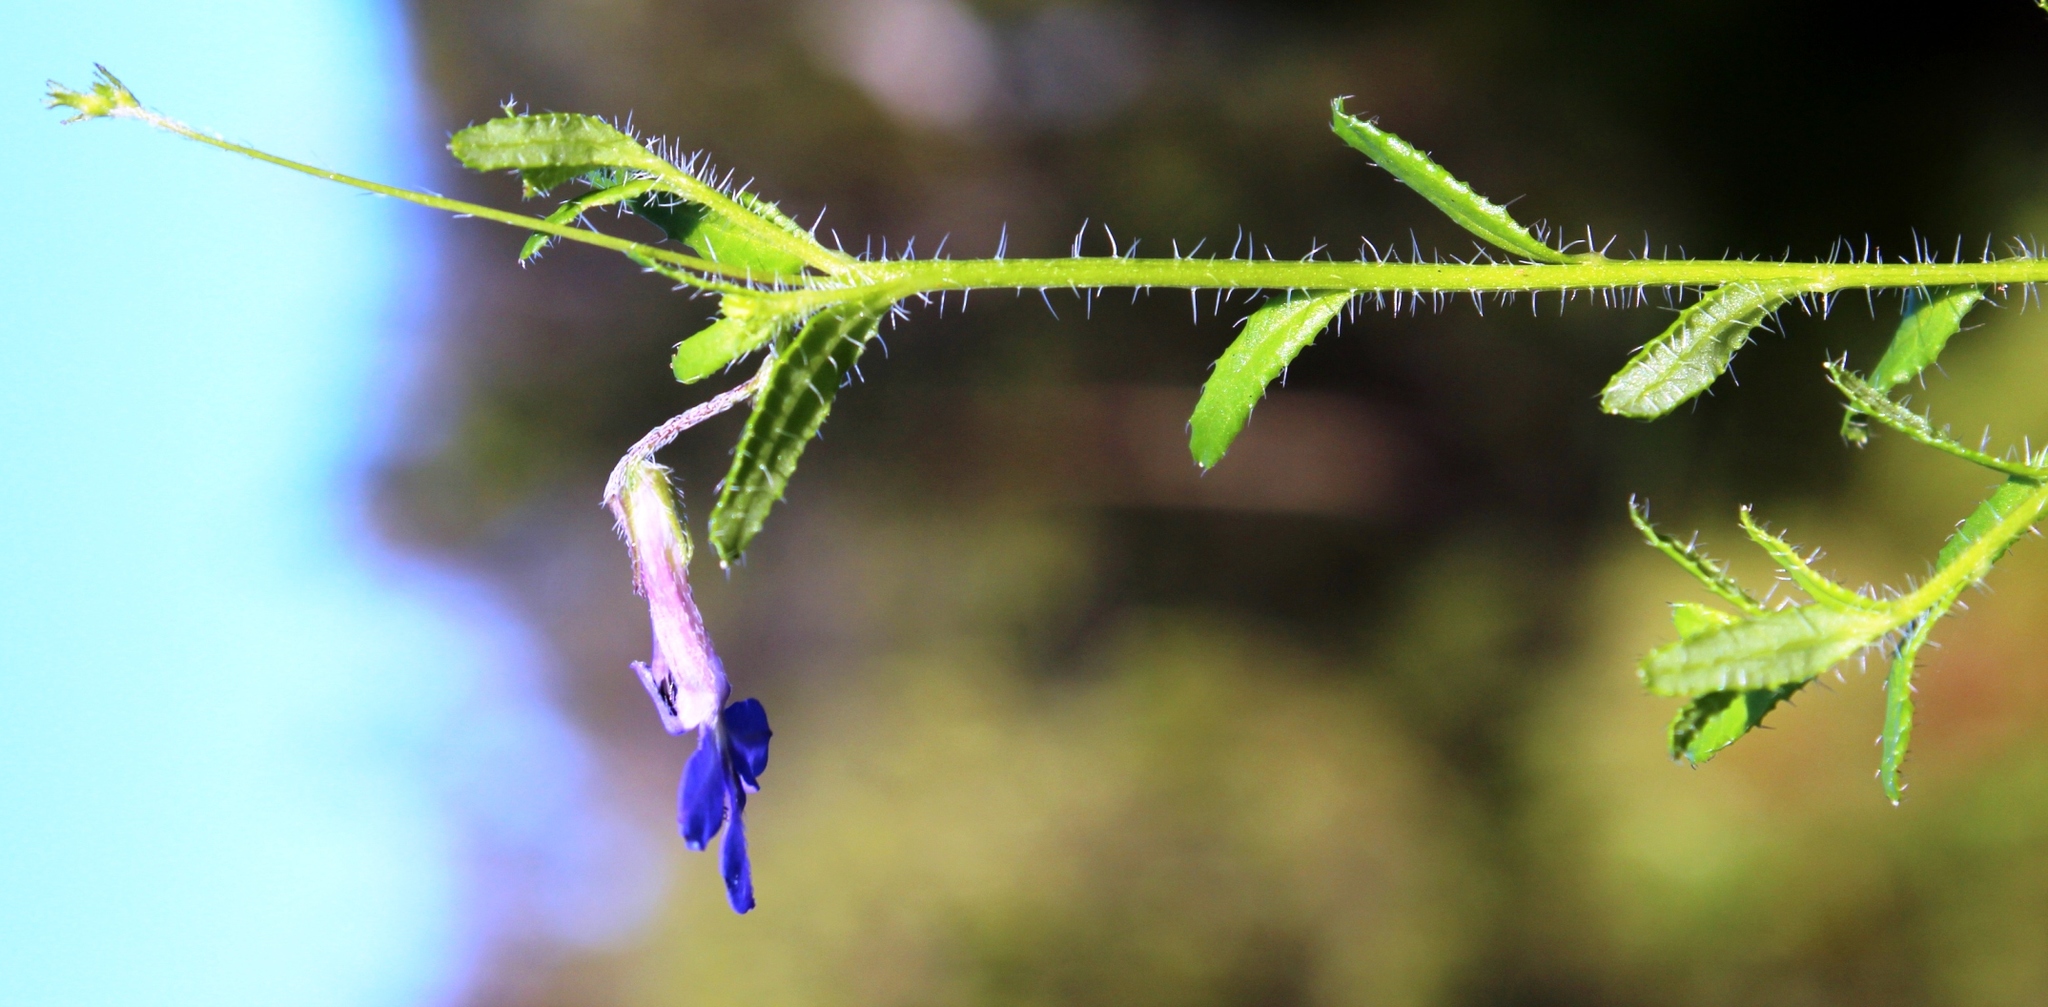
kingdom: Plantae
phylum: Tracheophyta
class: Magnoliopsida
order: Asterales
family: Campanulaceae
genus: Lobelia
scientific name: Lobelia neglecta
